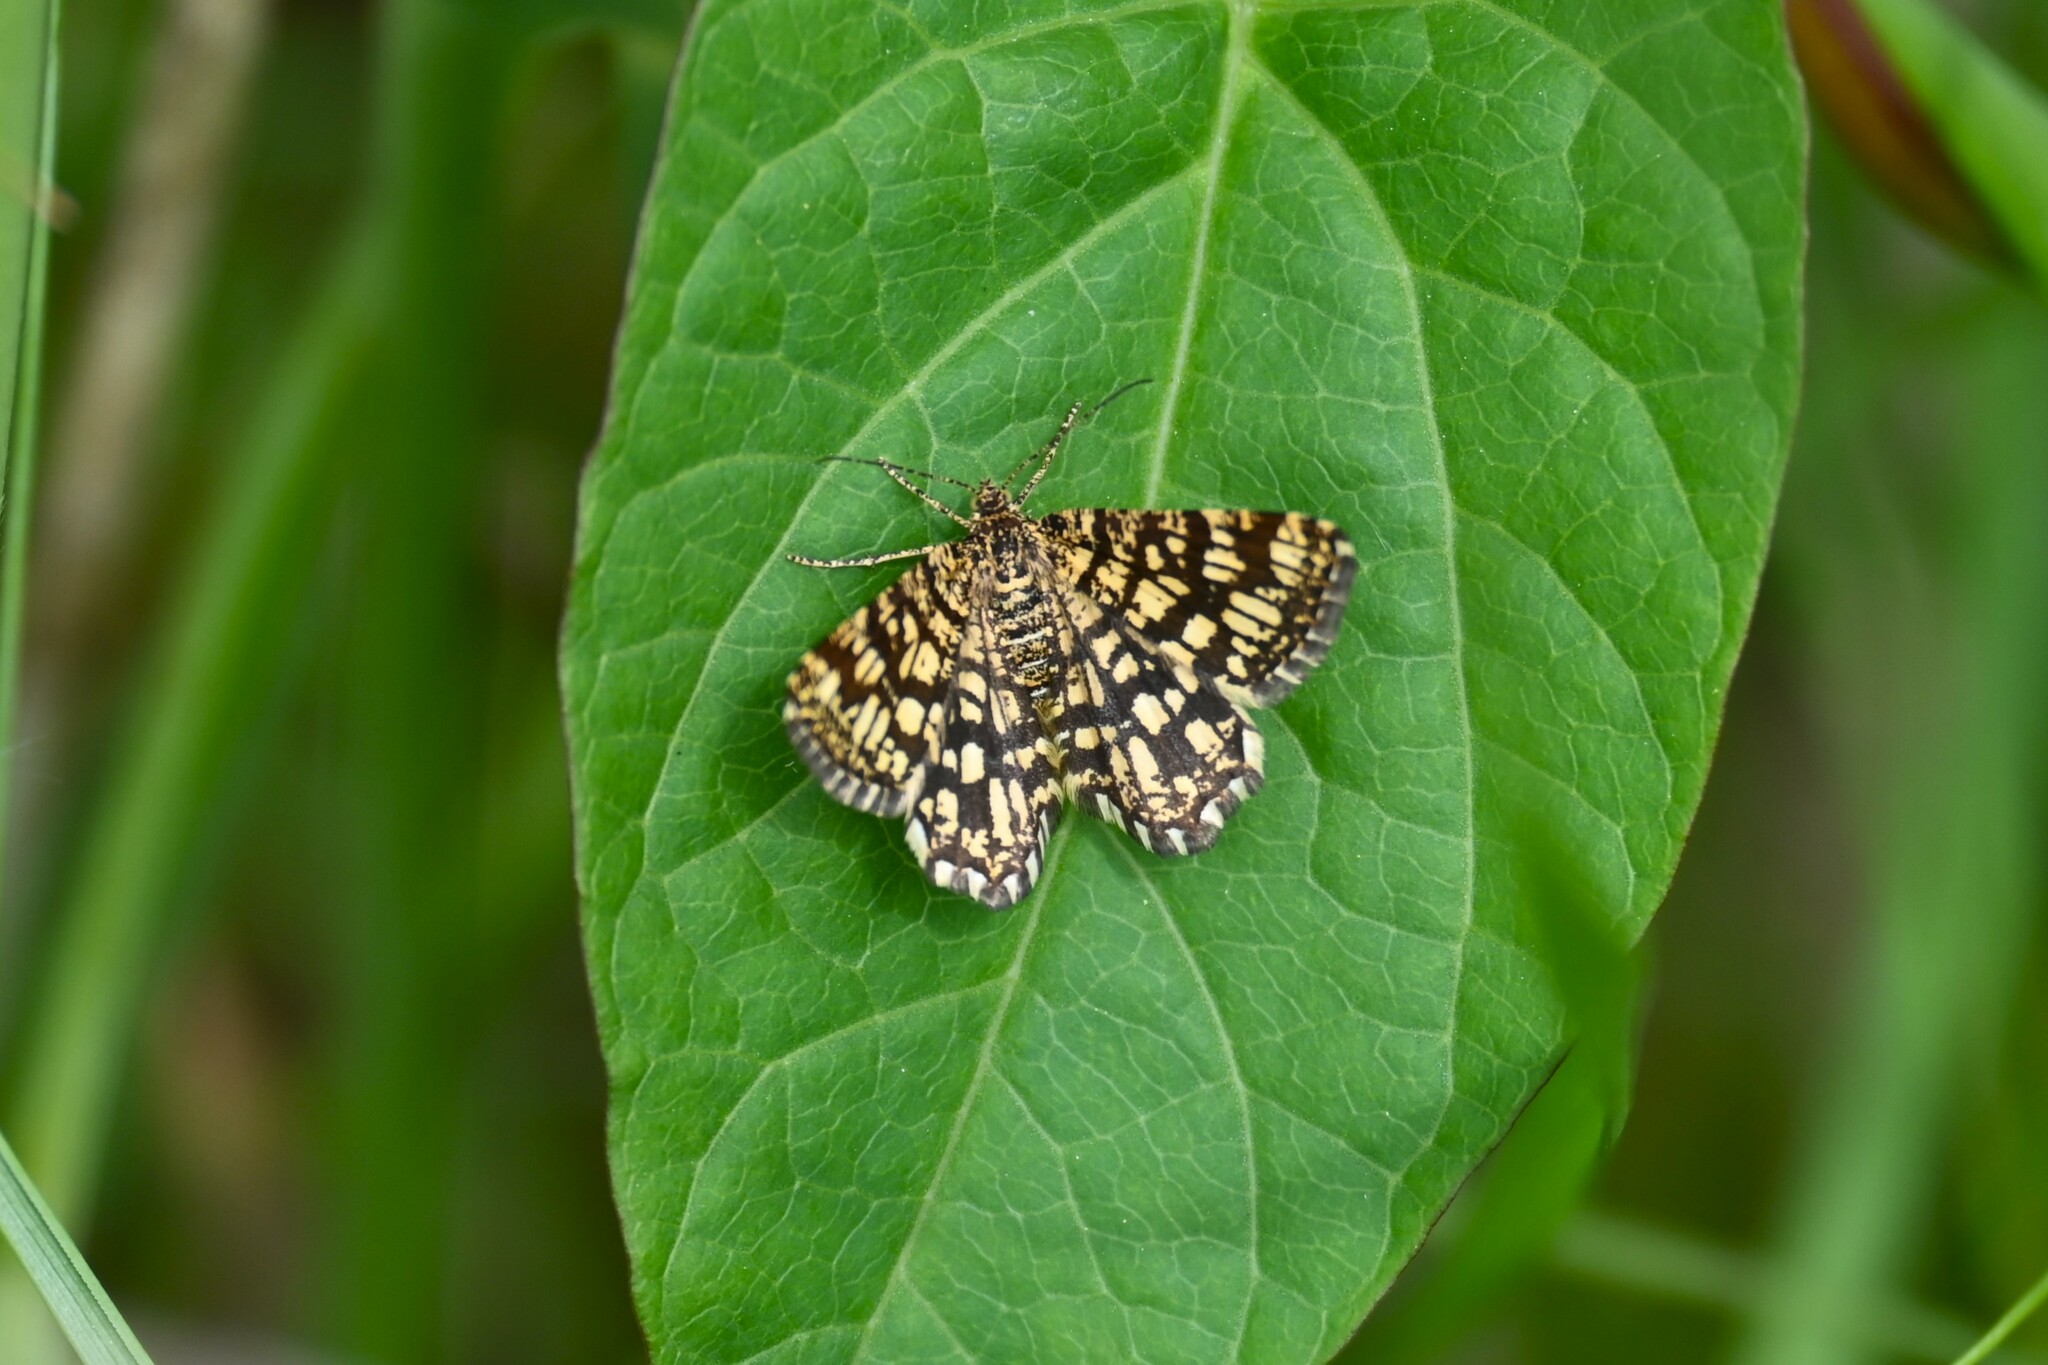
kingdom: Animalia
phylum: Arthropoda
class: Insecta
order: Lepidoptera
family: Geometridae
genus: Chiasmia
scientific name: Chiasmia clathrata
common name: Latticed heath
